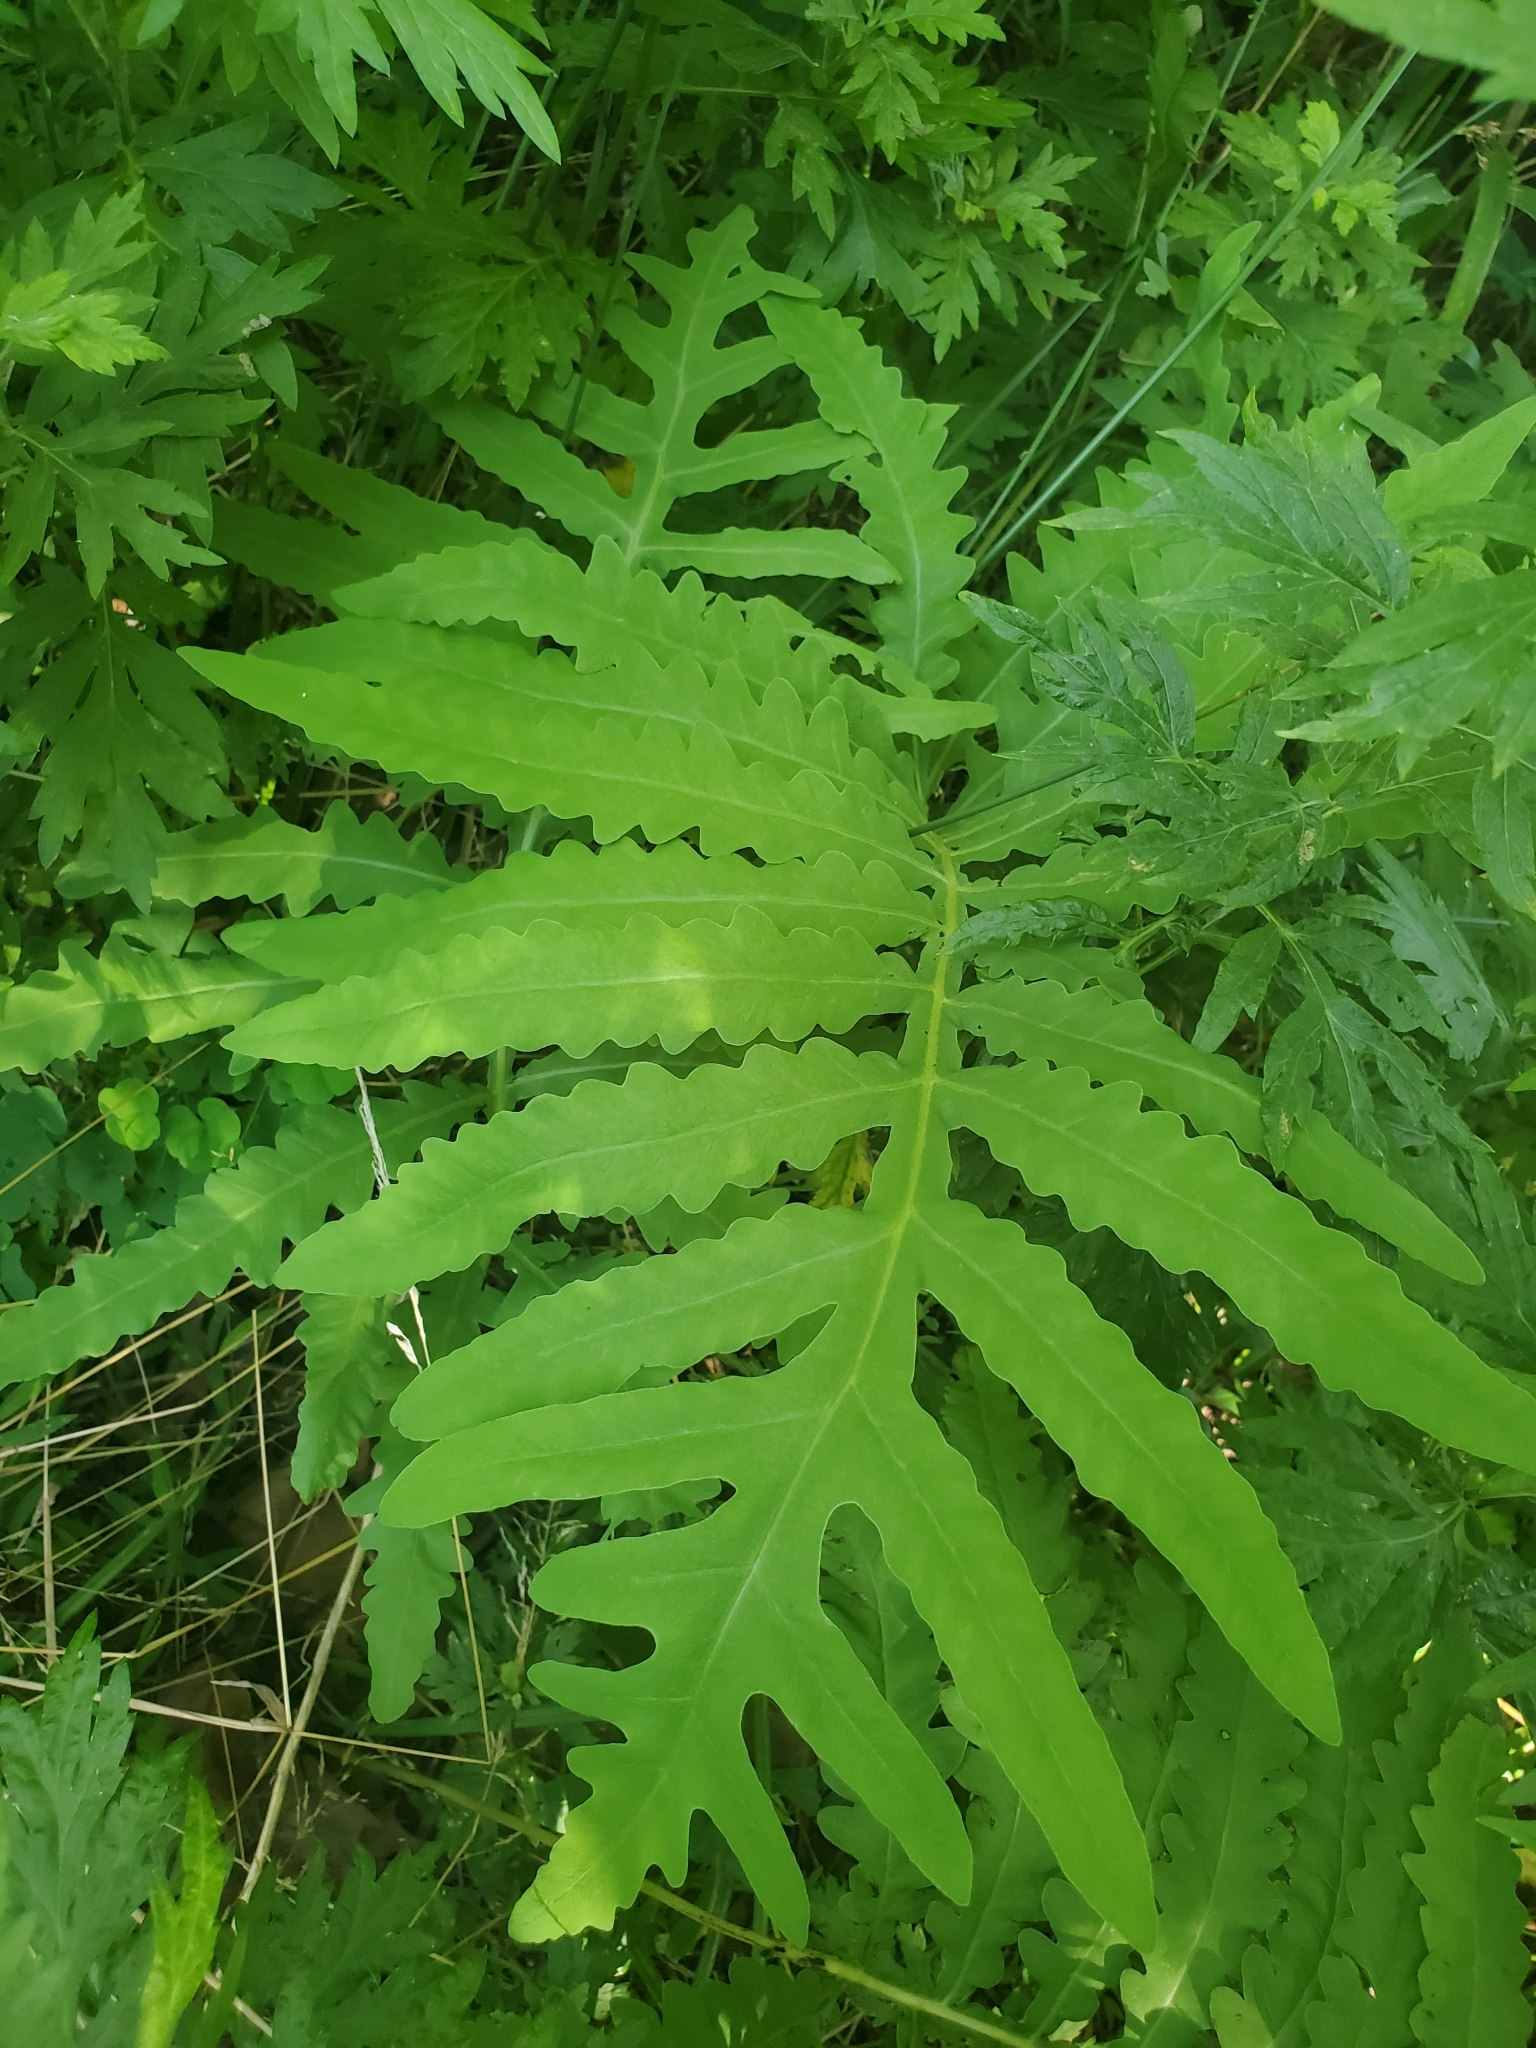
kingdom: Plantae
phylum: Tracheophyta
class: Polypodiopsida
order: Polypodiales
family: Onocleaceae
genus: Onoclea
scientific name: Onoclea sensibilis
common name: Sensitive fern
